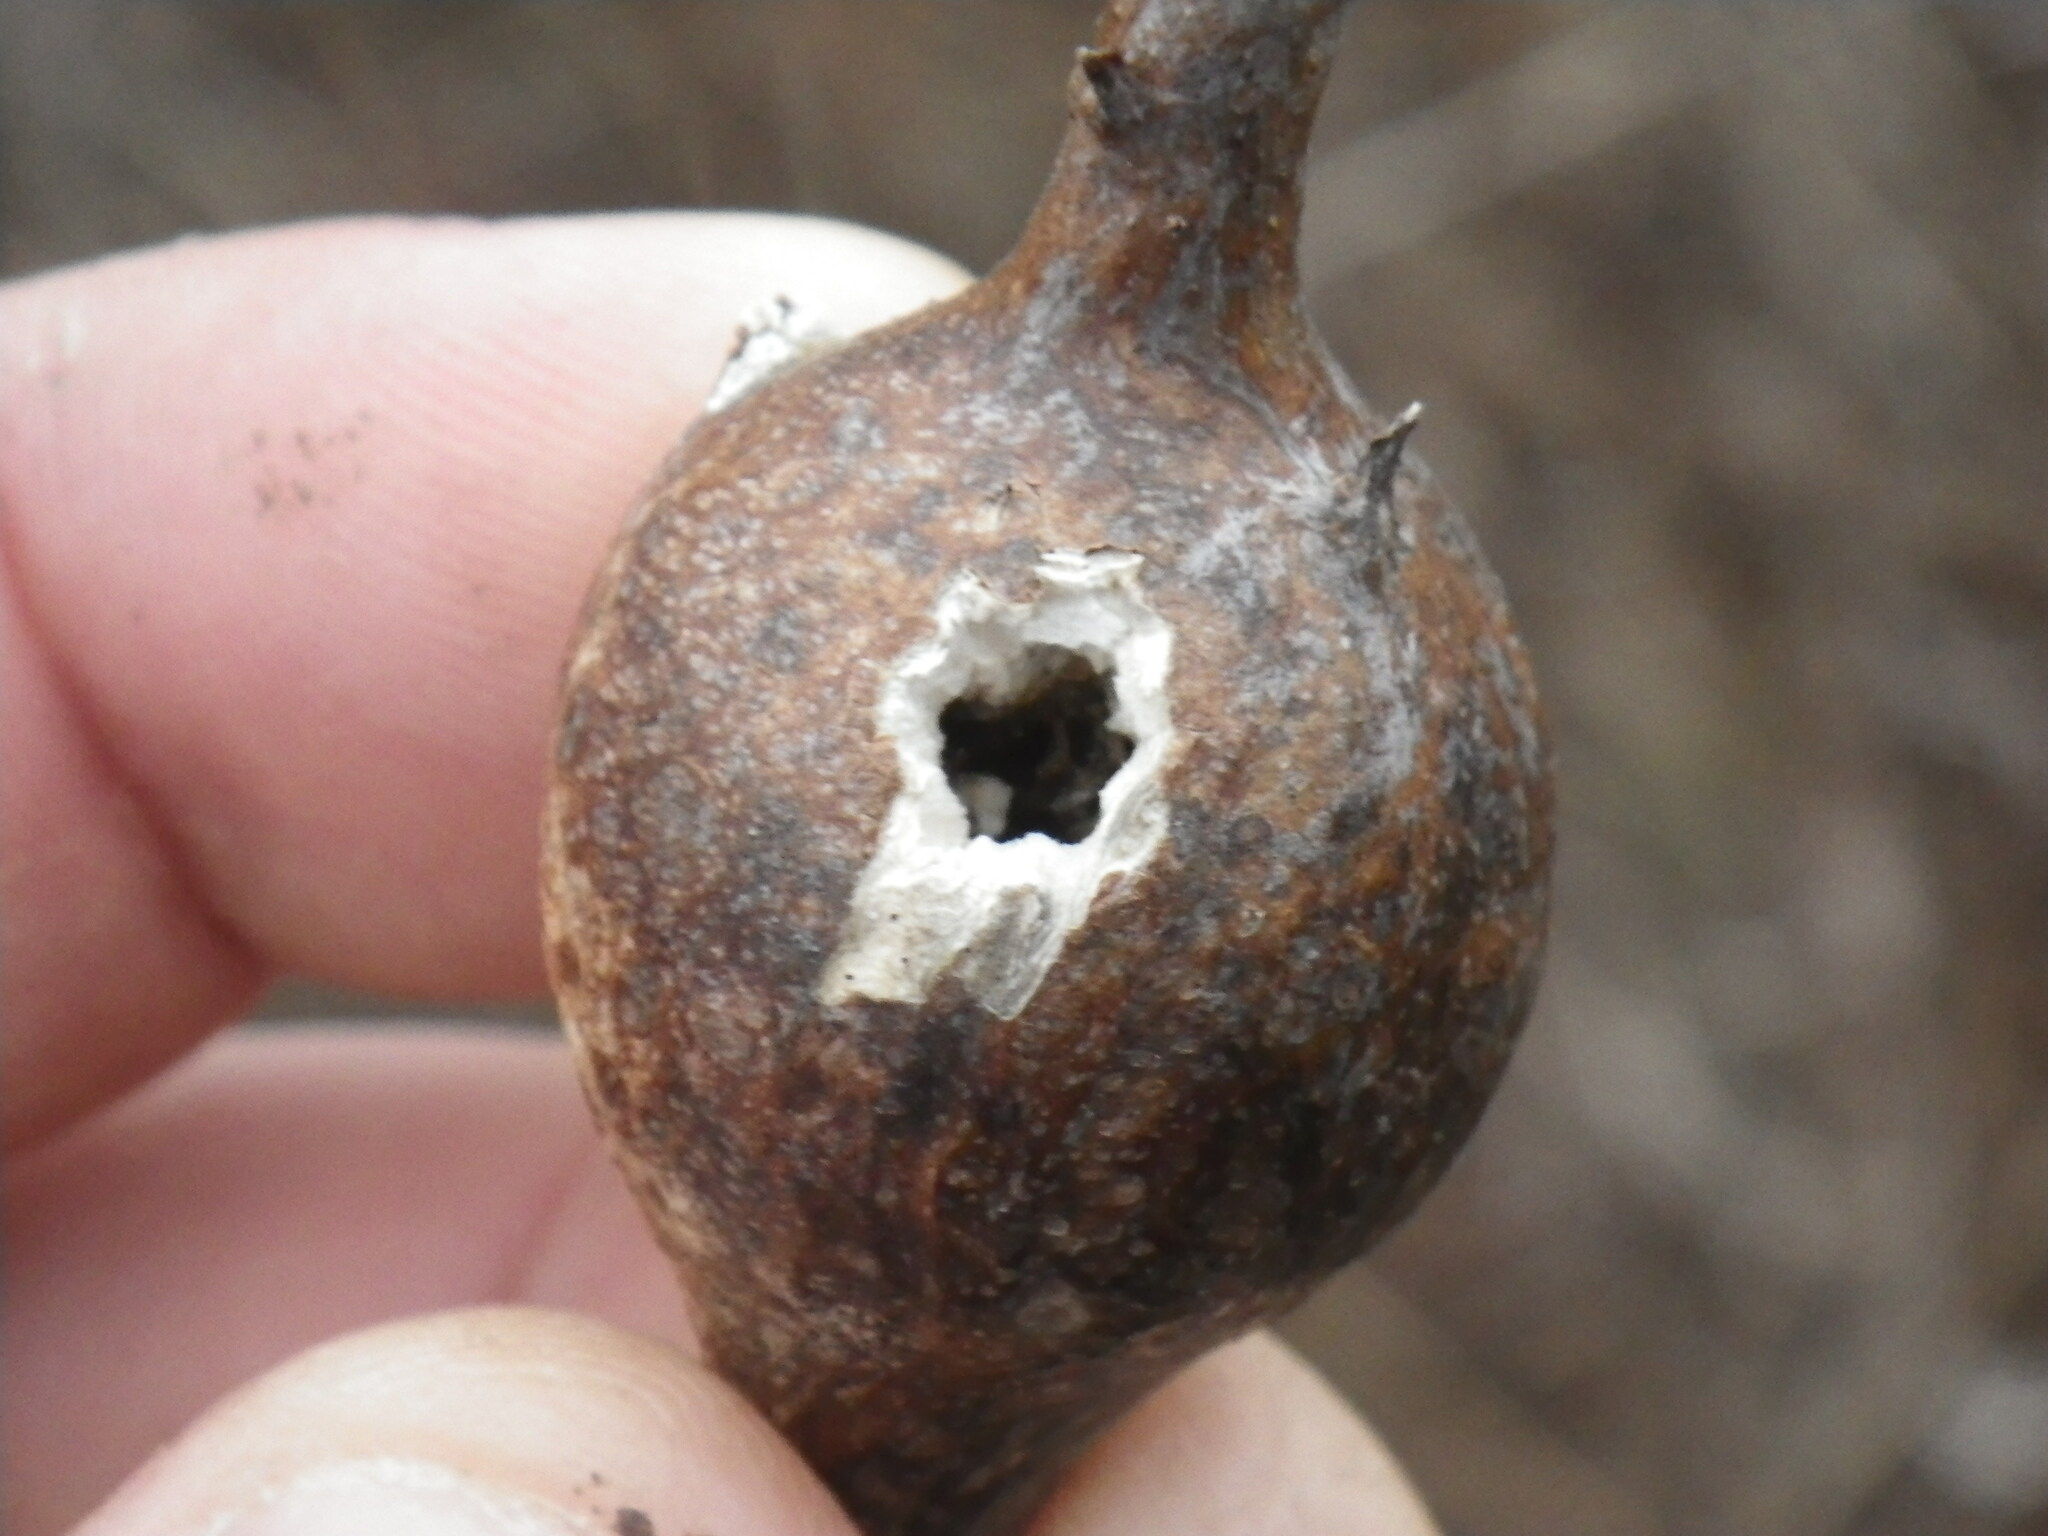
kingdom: Animalia
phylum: Arthropoda
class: Insecta
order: Diptera
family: Tephritidae
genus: Eurosta
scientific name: Eurosta solidaginis
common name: Goldenrod gall fly
